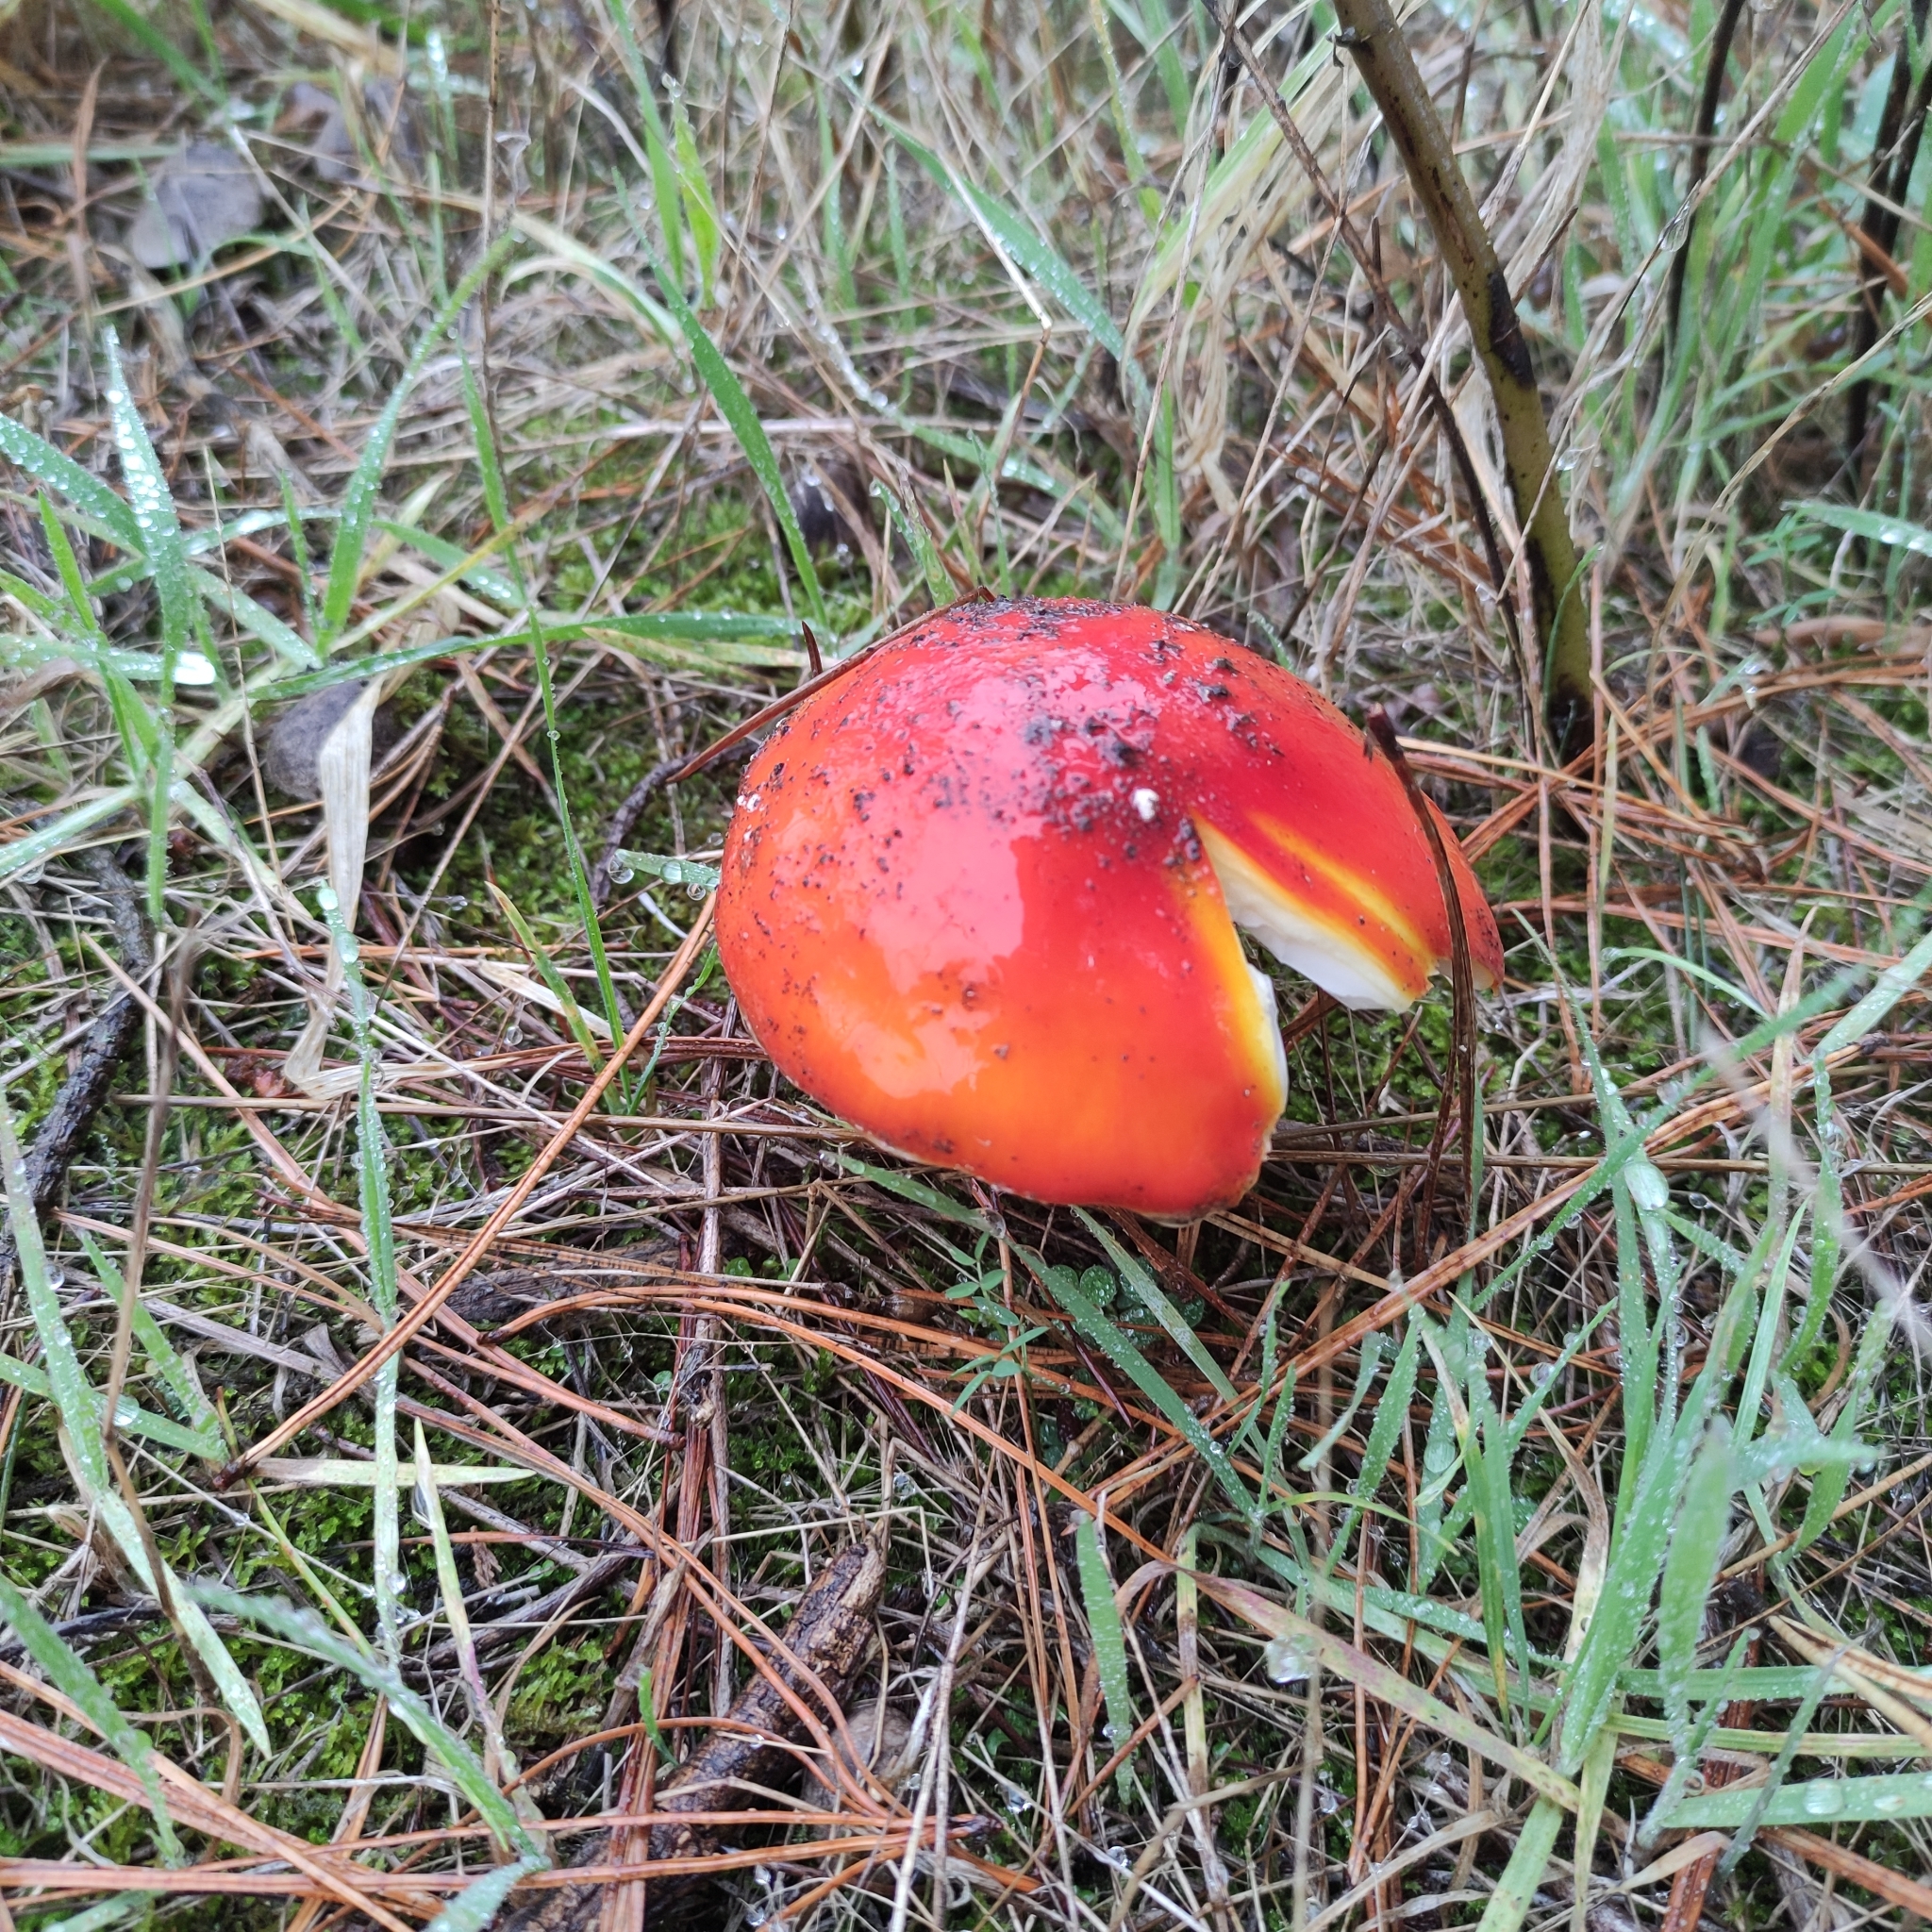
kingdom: Fungi
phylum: Basidiomycota
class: Agaricomycetes
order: Agaricales
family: Amanitaceae
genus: Amanita
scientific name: Amanita muscaria
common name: Fly agaric
